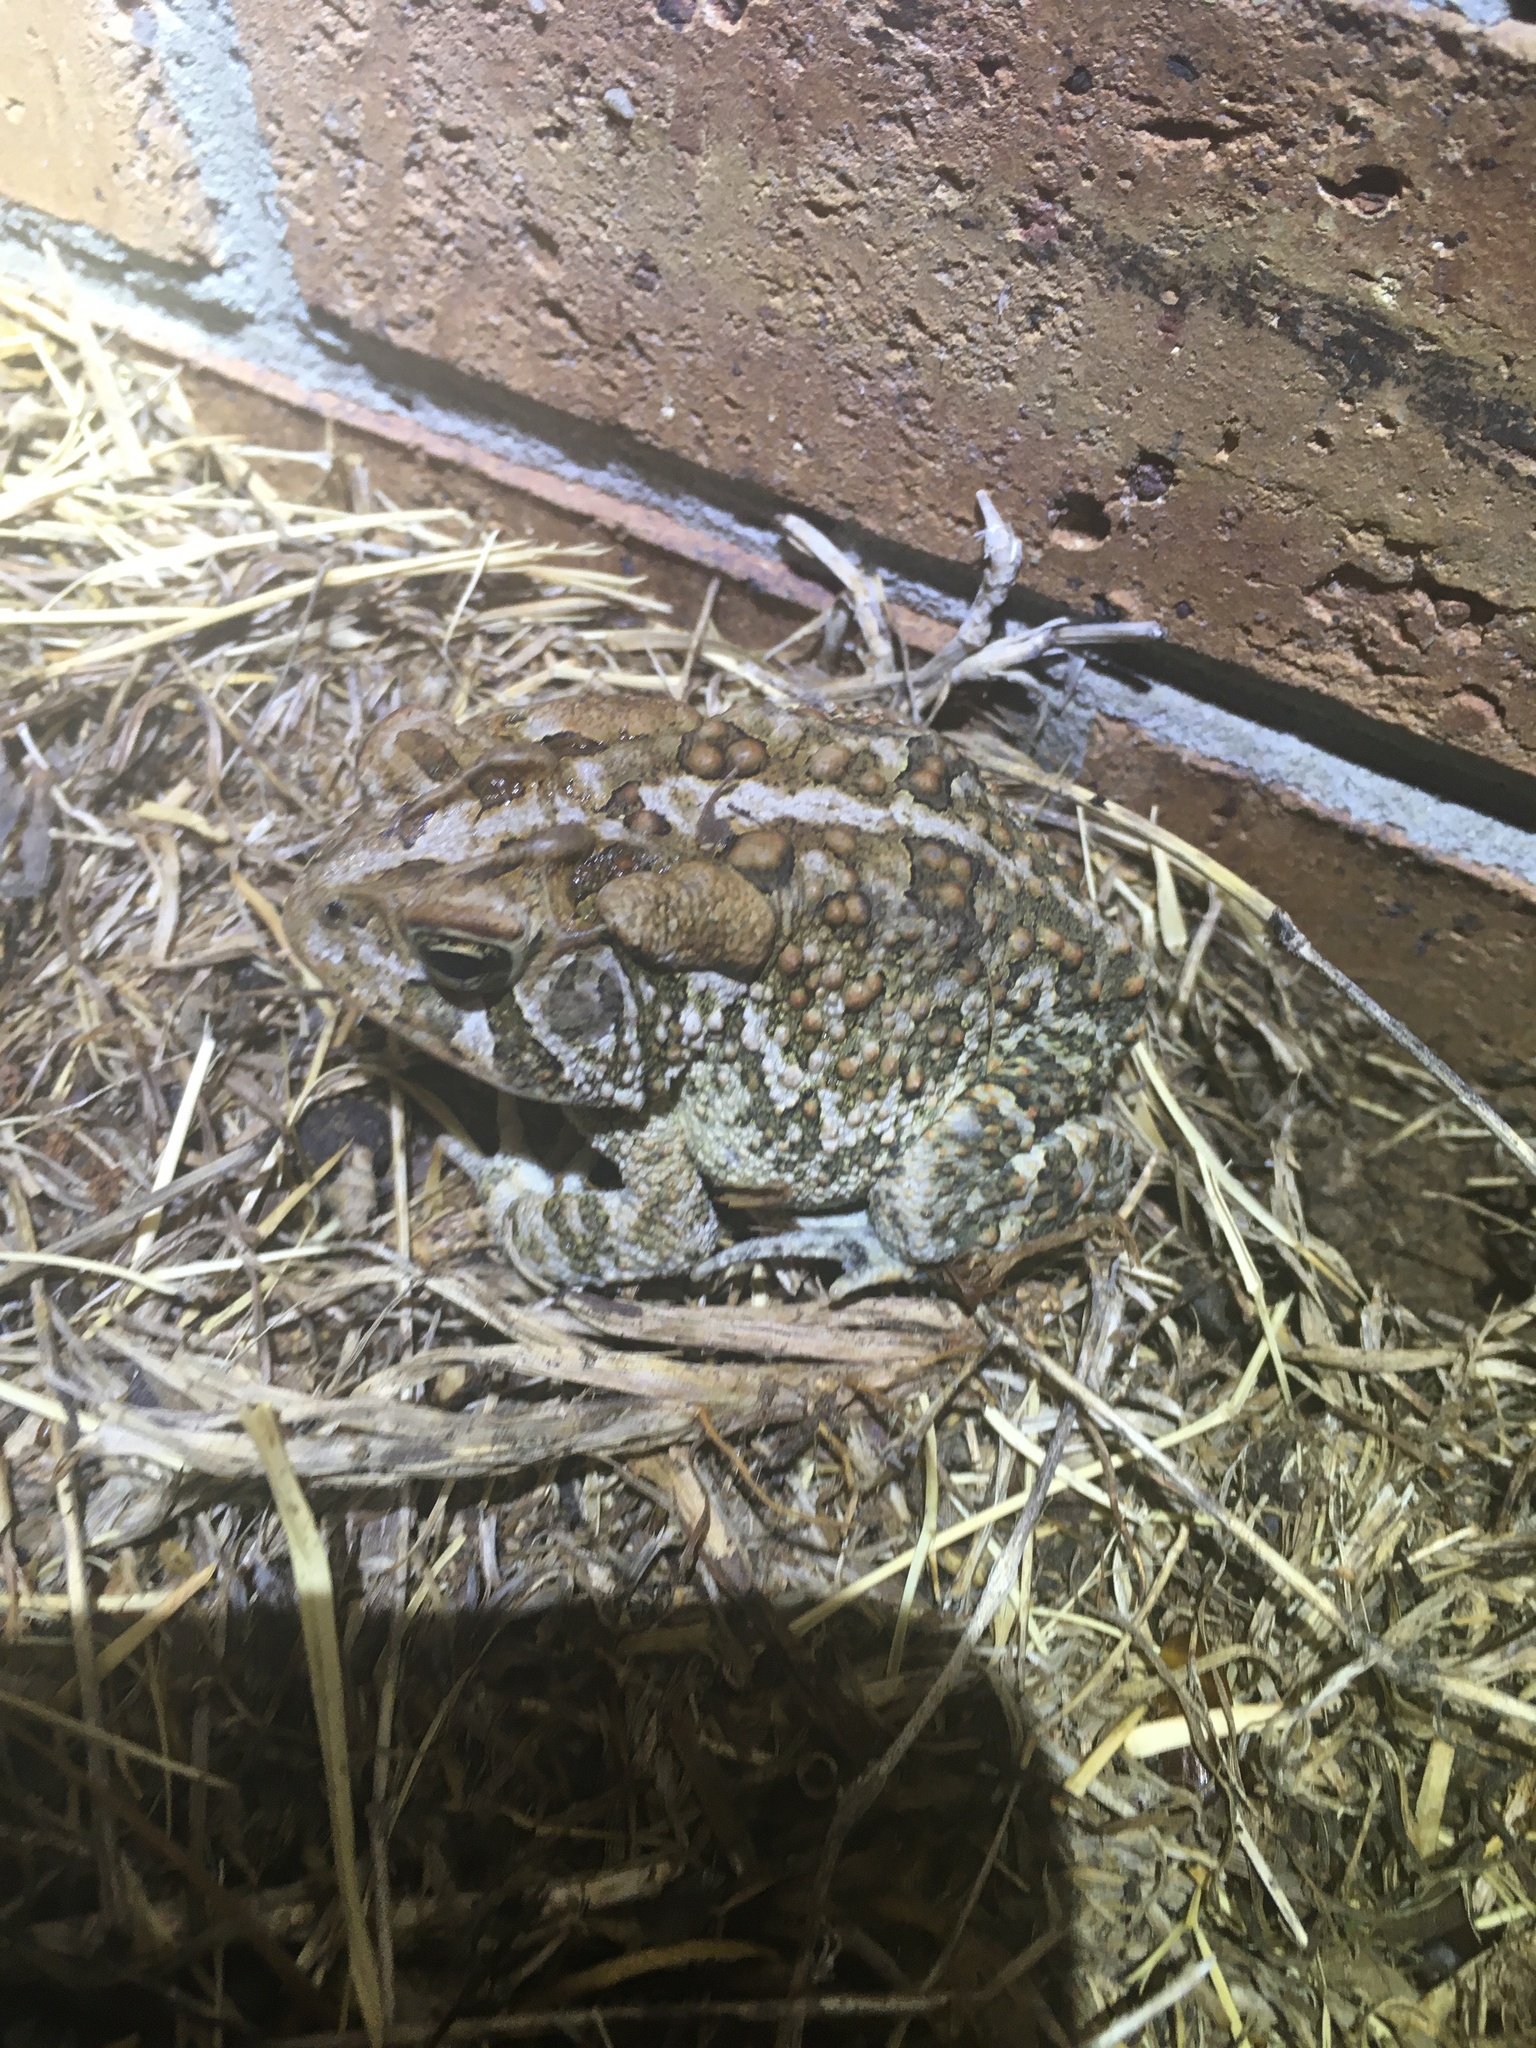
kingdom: Animalia
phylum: Chordata
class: Amphibia
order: Anura
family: Bufonidae
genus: Anaxyrus
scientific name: Anaxyrus terrestris
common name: Southern toad
